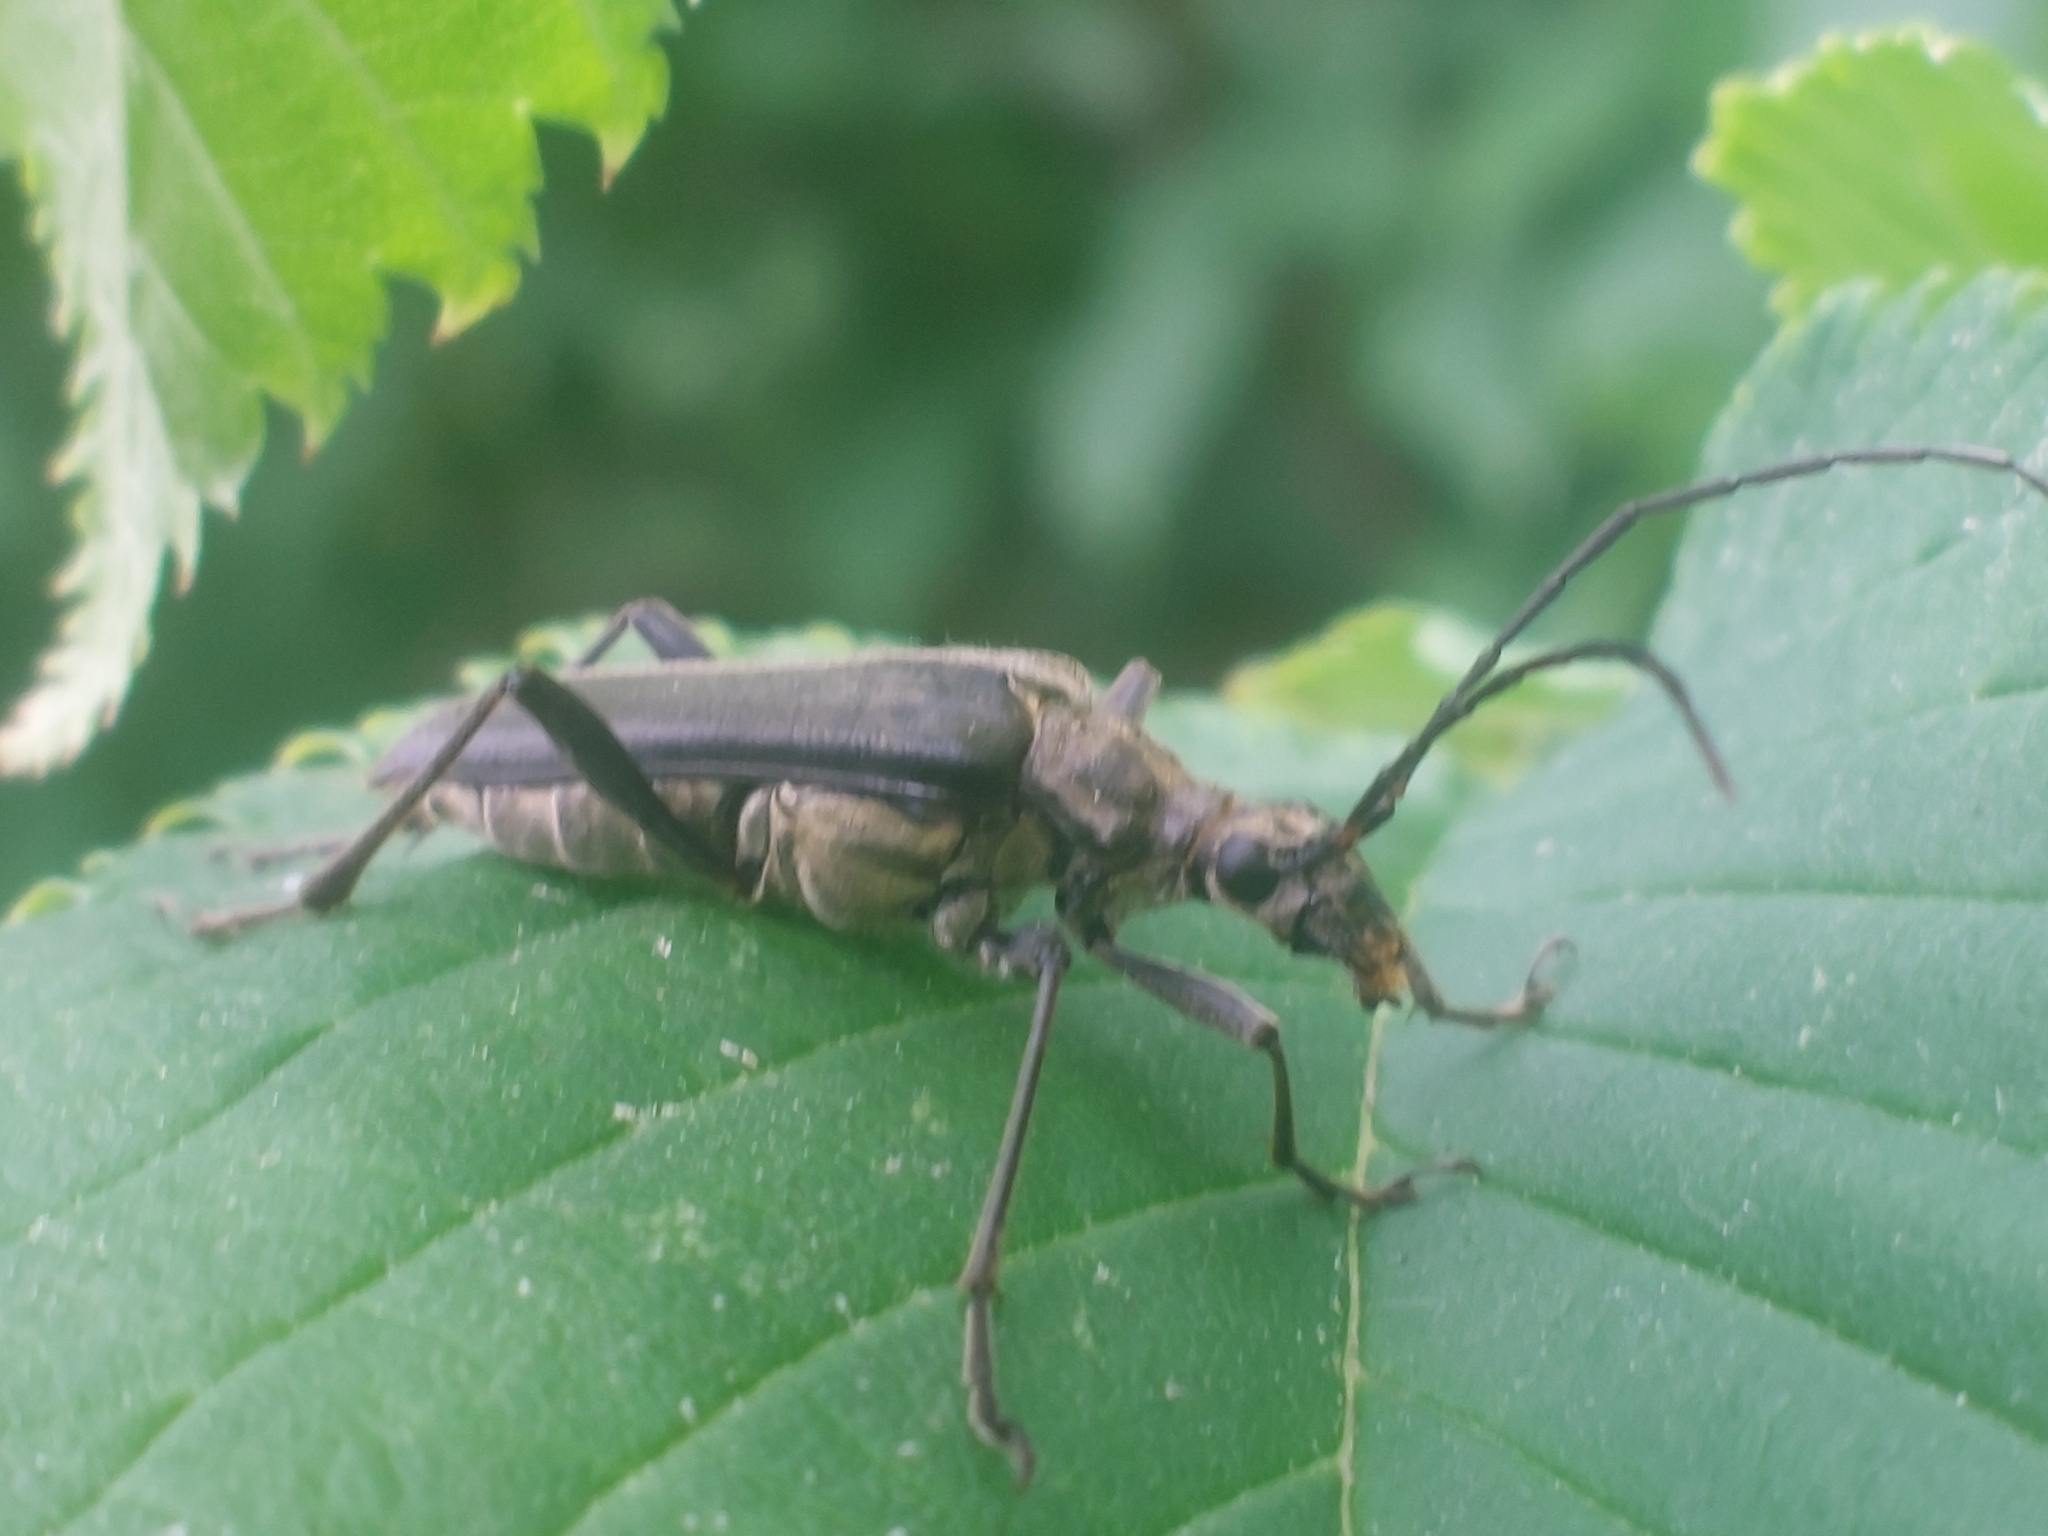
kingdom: Animalia
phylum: Arthropoda
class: Insecta
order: Coleoptera
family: Cerambycidae
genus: Stenocorus
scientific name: Stenocorus meridianus
